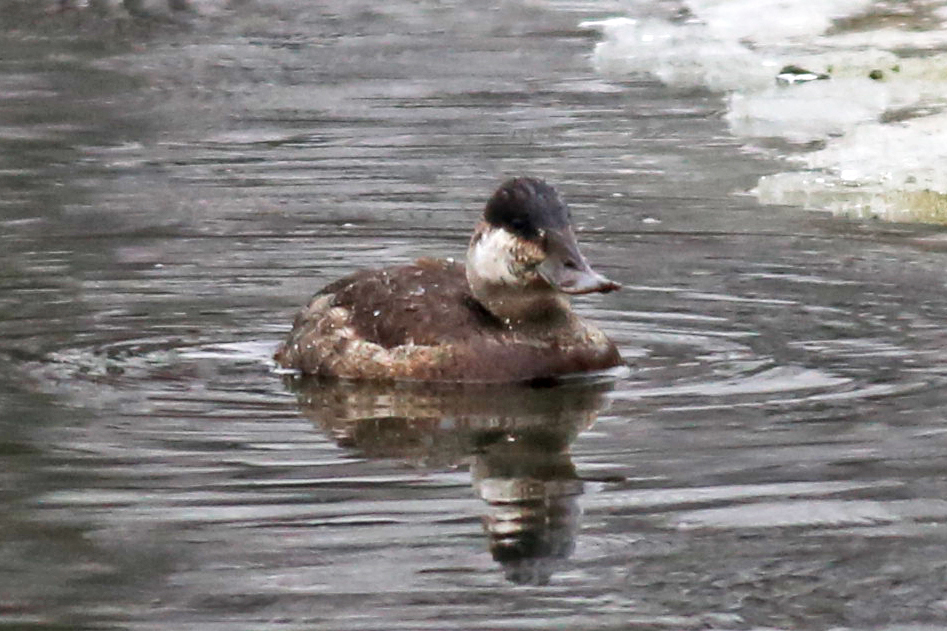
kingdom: Animalia
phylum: Chordata
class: Aves
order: Anseriformes
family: Anatidae
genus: Oxyura
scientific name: Oxyura jamaicensis
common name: Ruddy duck
